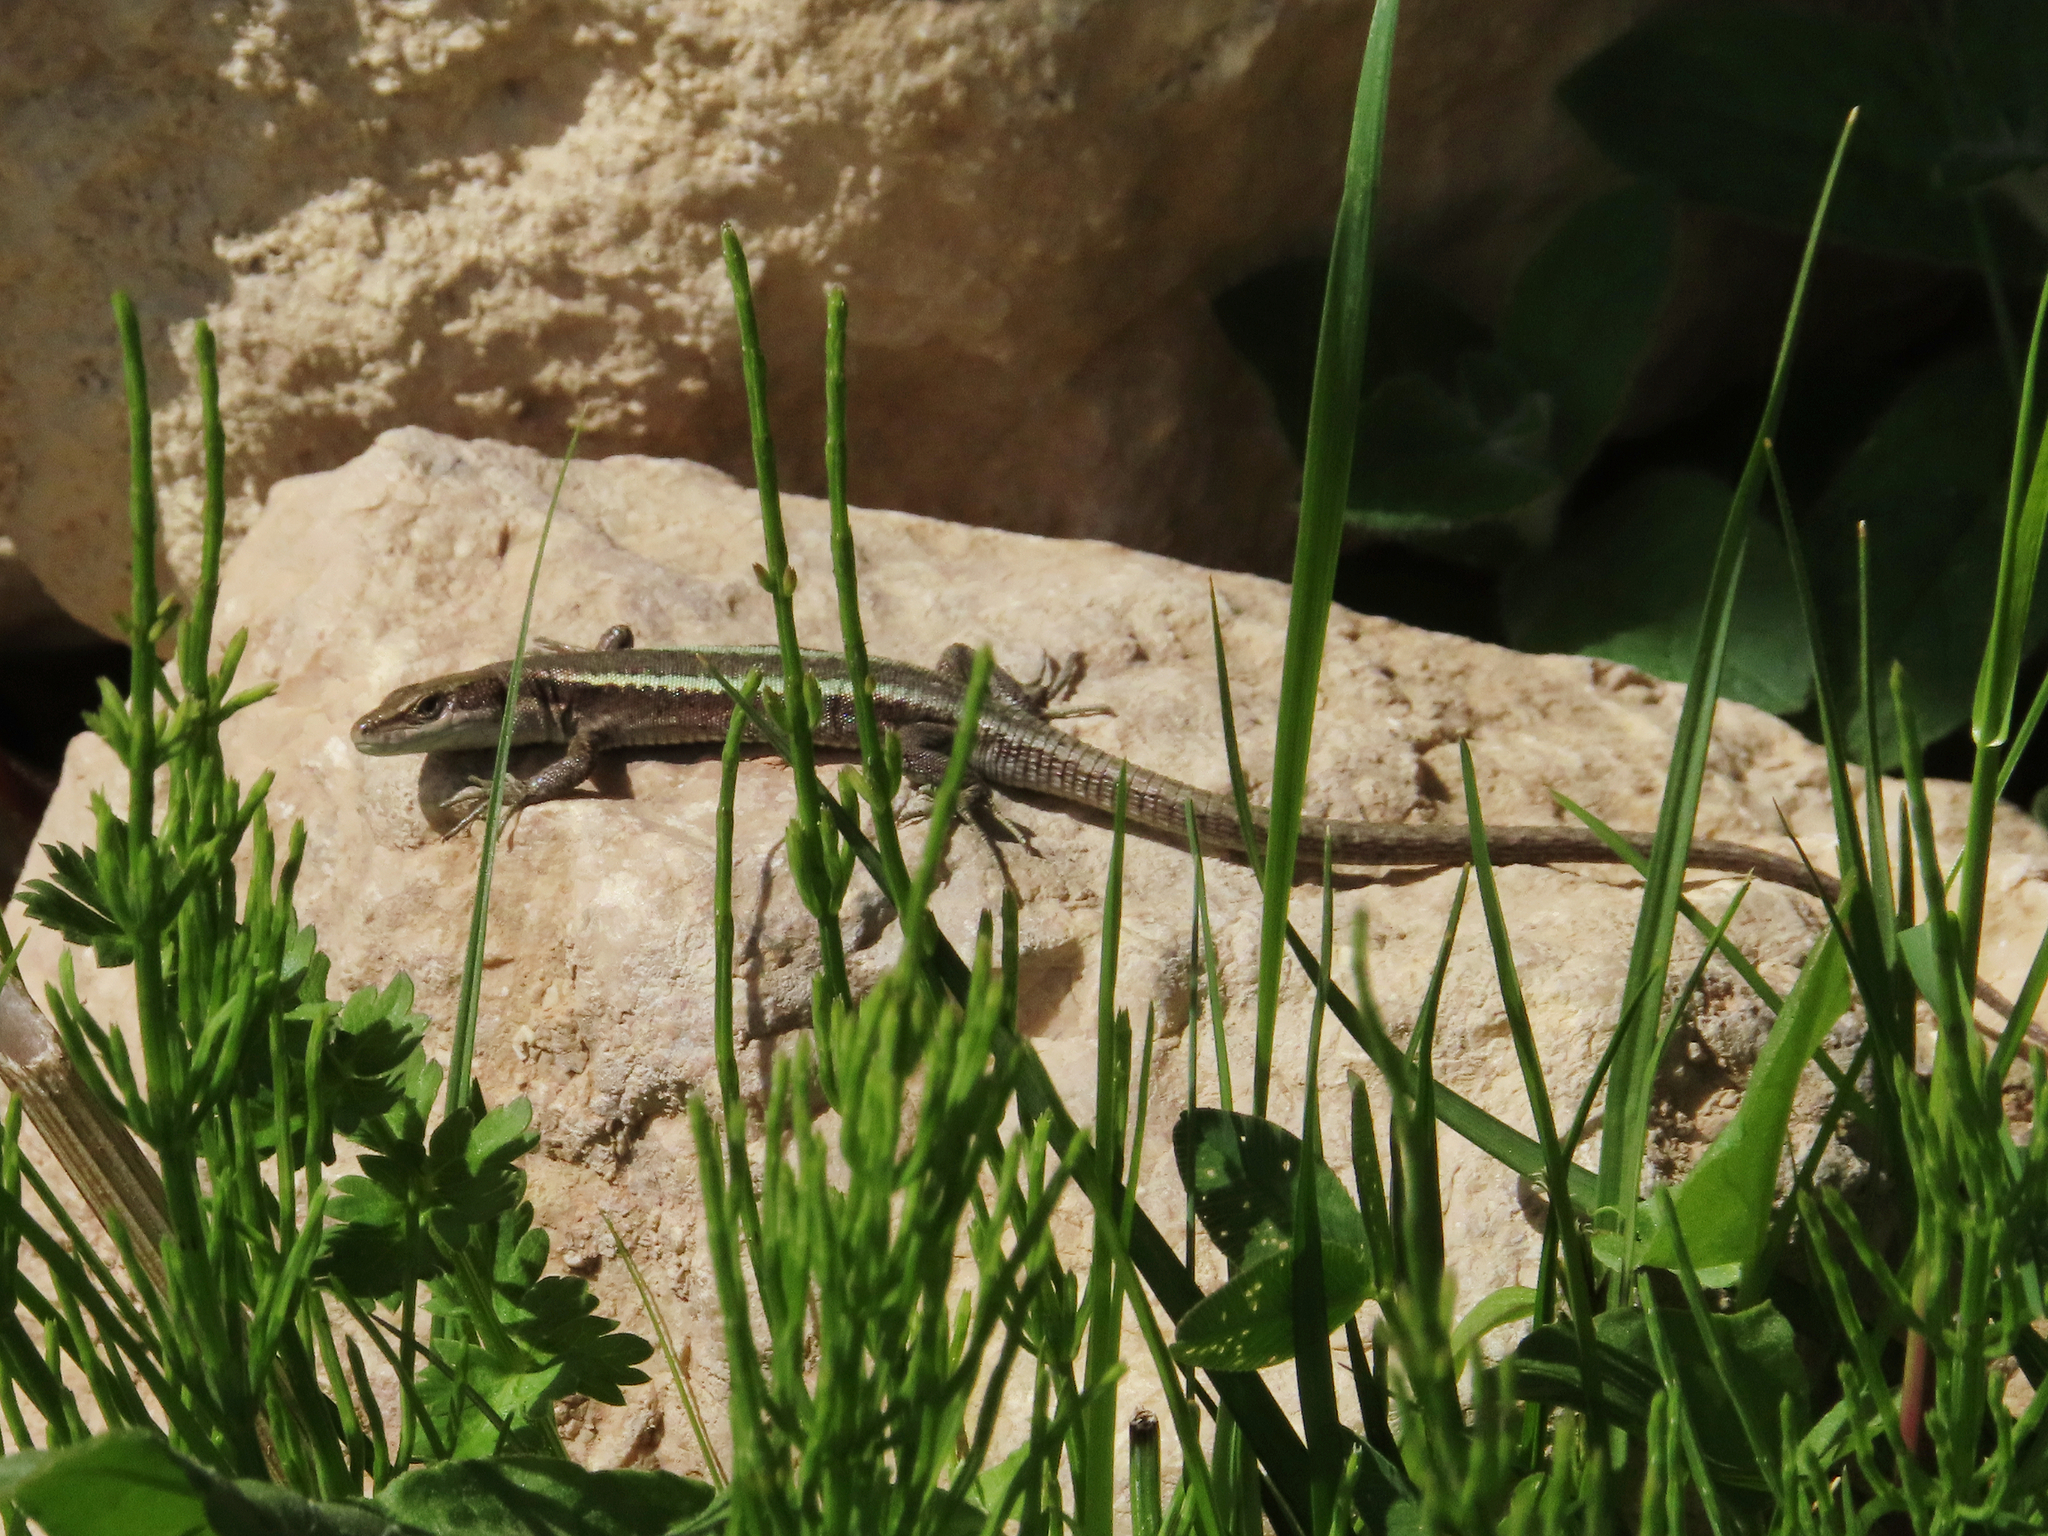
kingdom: Animalia
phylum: Chordata
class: Squamata
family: Lacertidae
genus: Darevskia
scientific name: Darevskia daghestanica
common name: Dagestan lizard
